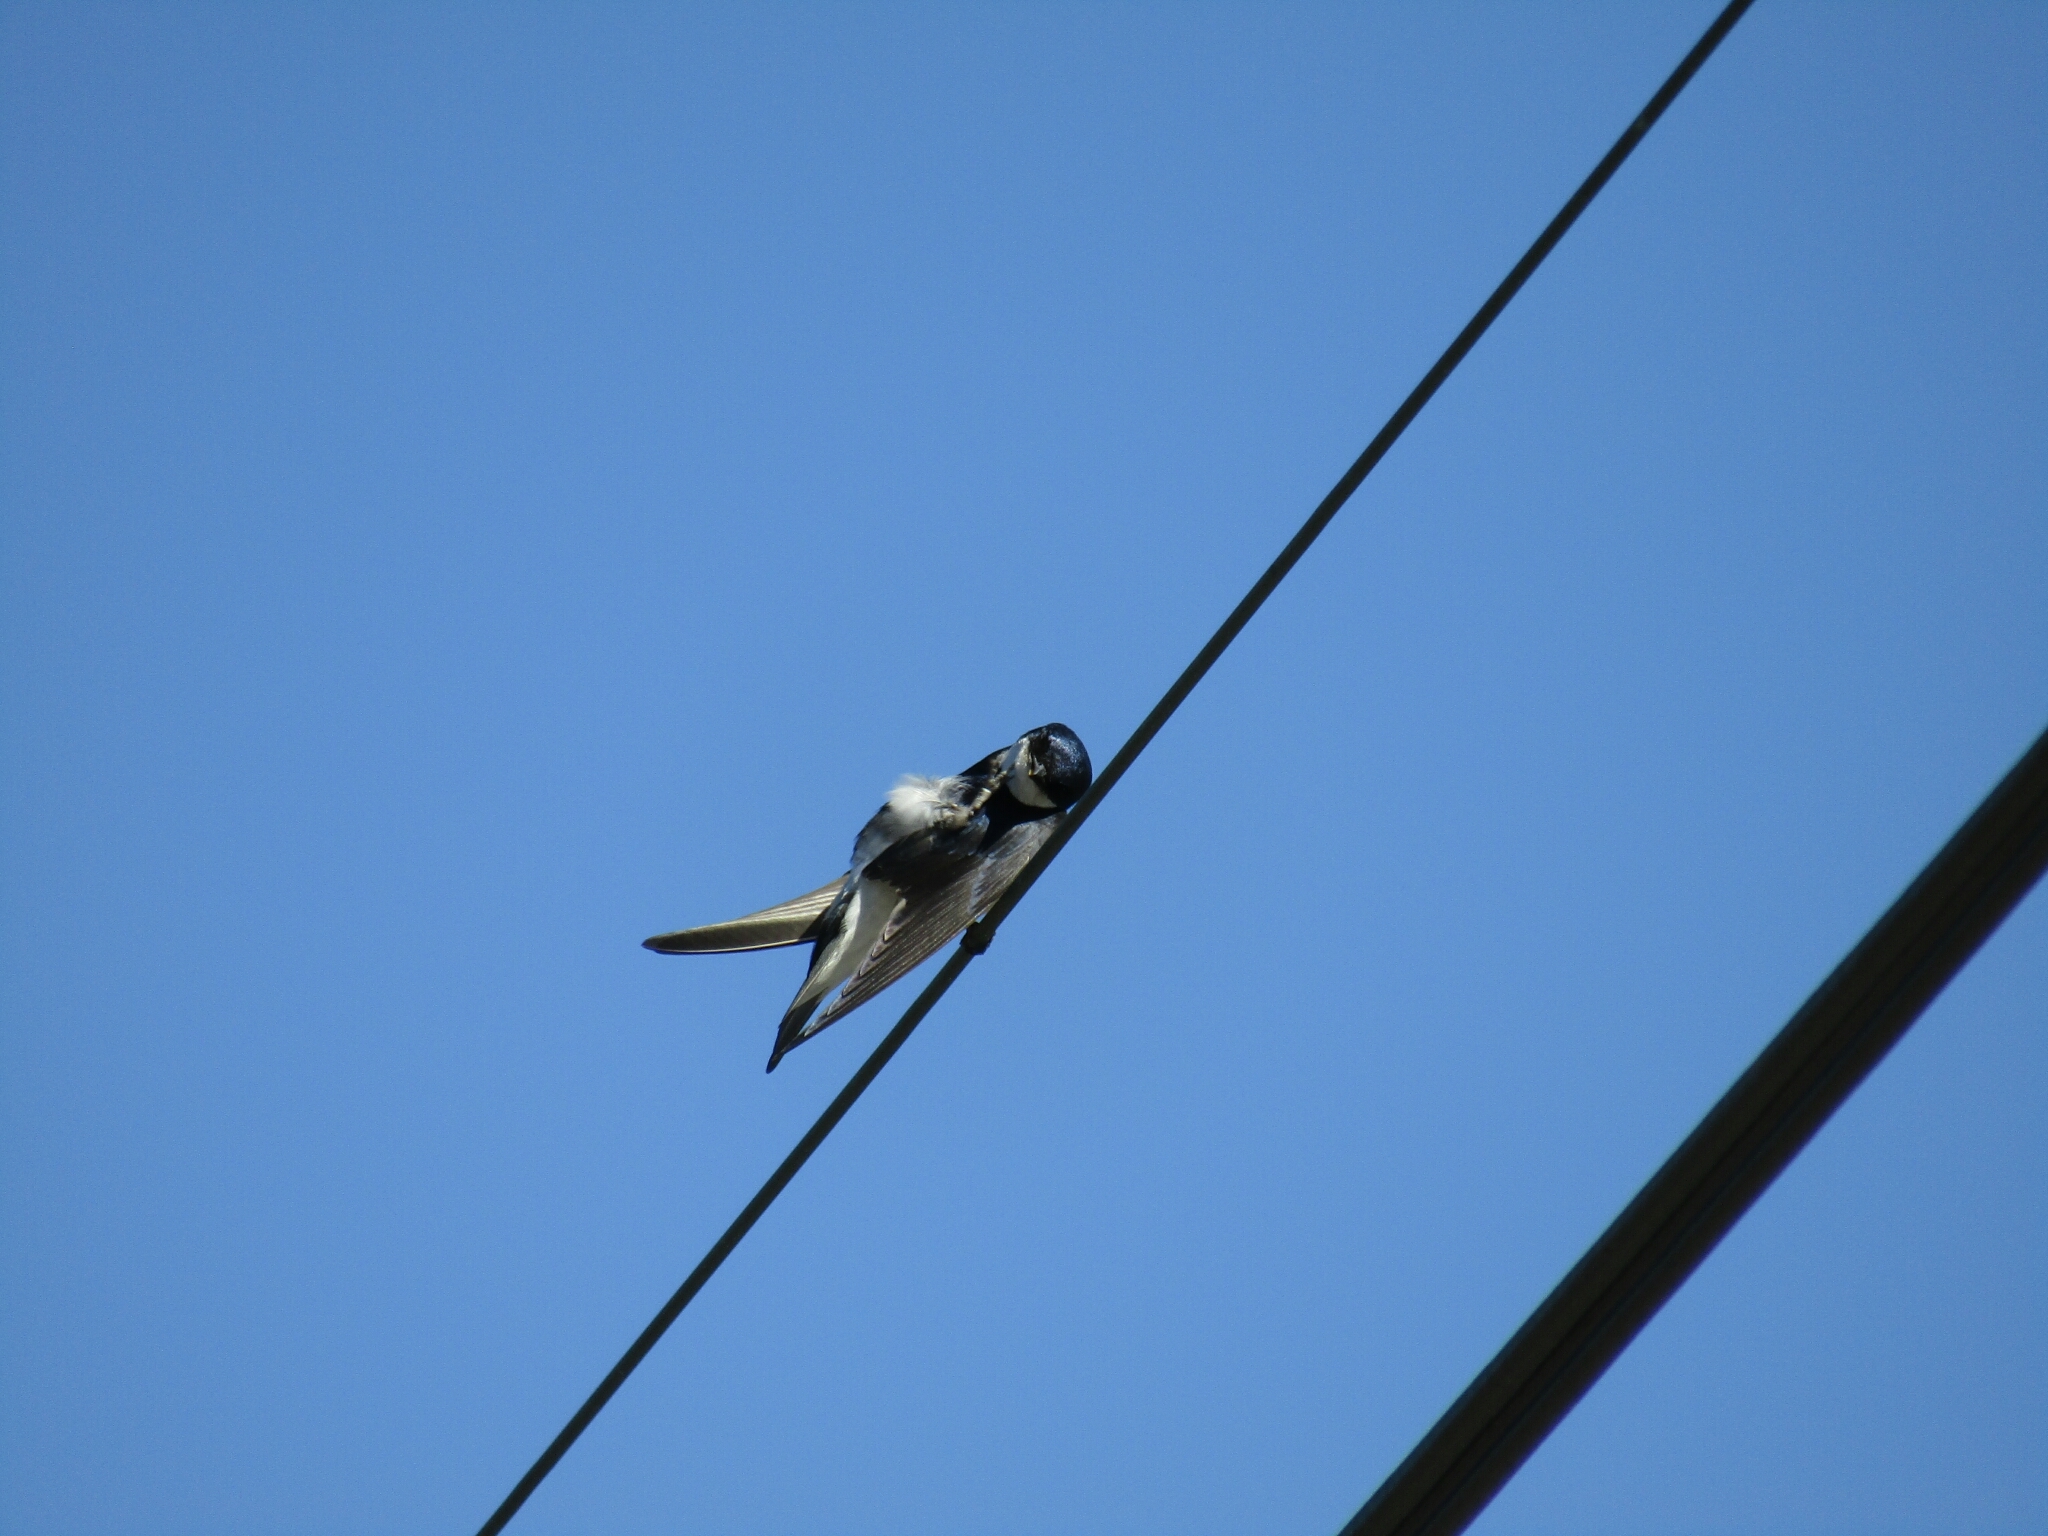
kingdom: Animalia
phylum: Chordata
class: Aves
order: Passeriformes
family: Hirundinidae
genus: Tachycineta
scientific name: Tachycineta leucopyga
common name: Chilean swallow
